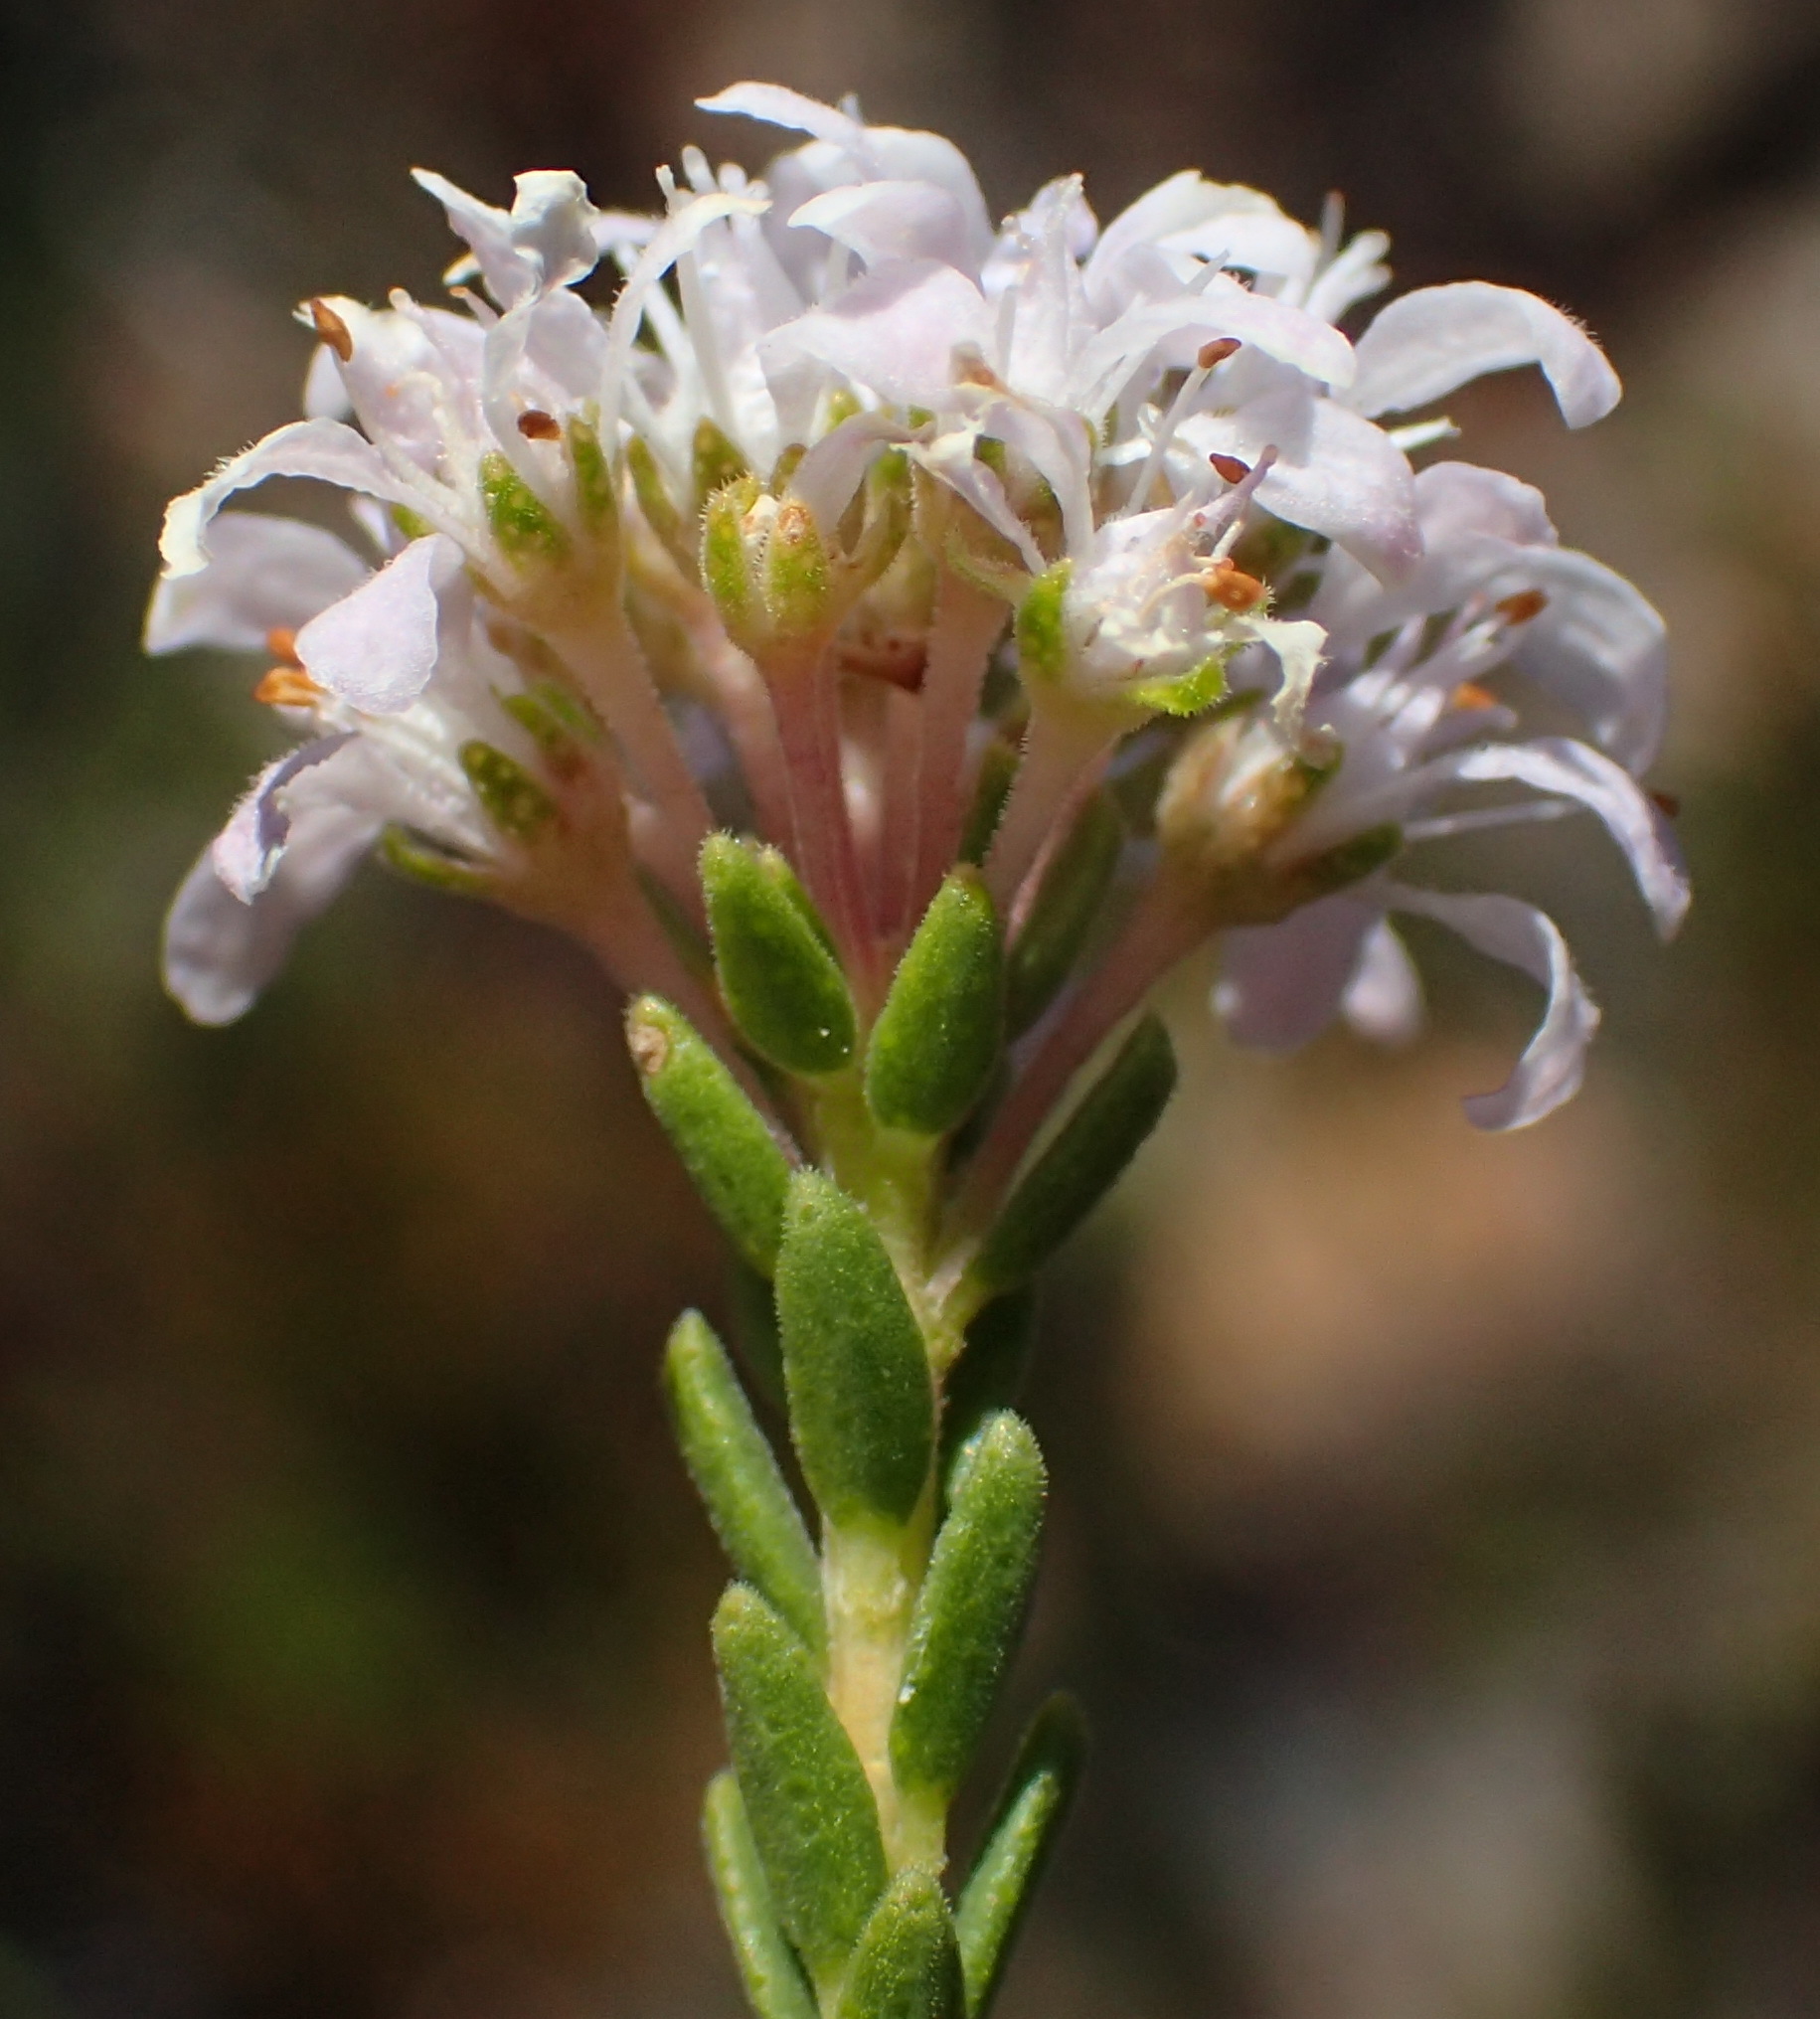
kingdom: Plantae
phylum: Tracheophyta
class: Magnoliopsida
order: Sapindales
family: Rutaceae
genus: Agathosma
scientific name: Agathosma capensis
